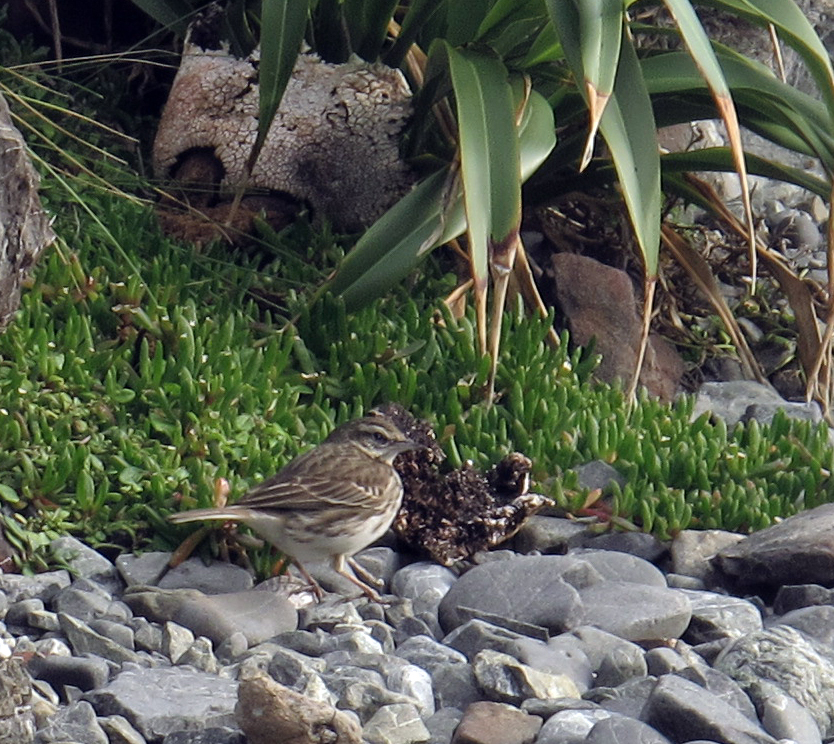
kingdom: Animalia
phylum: Chordata
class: Aves
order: Passeriformes
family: Motacillidae
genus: Anthus
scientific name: Anthus novaeseelandiae
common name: New zealand pipit
